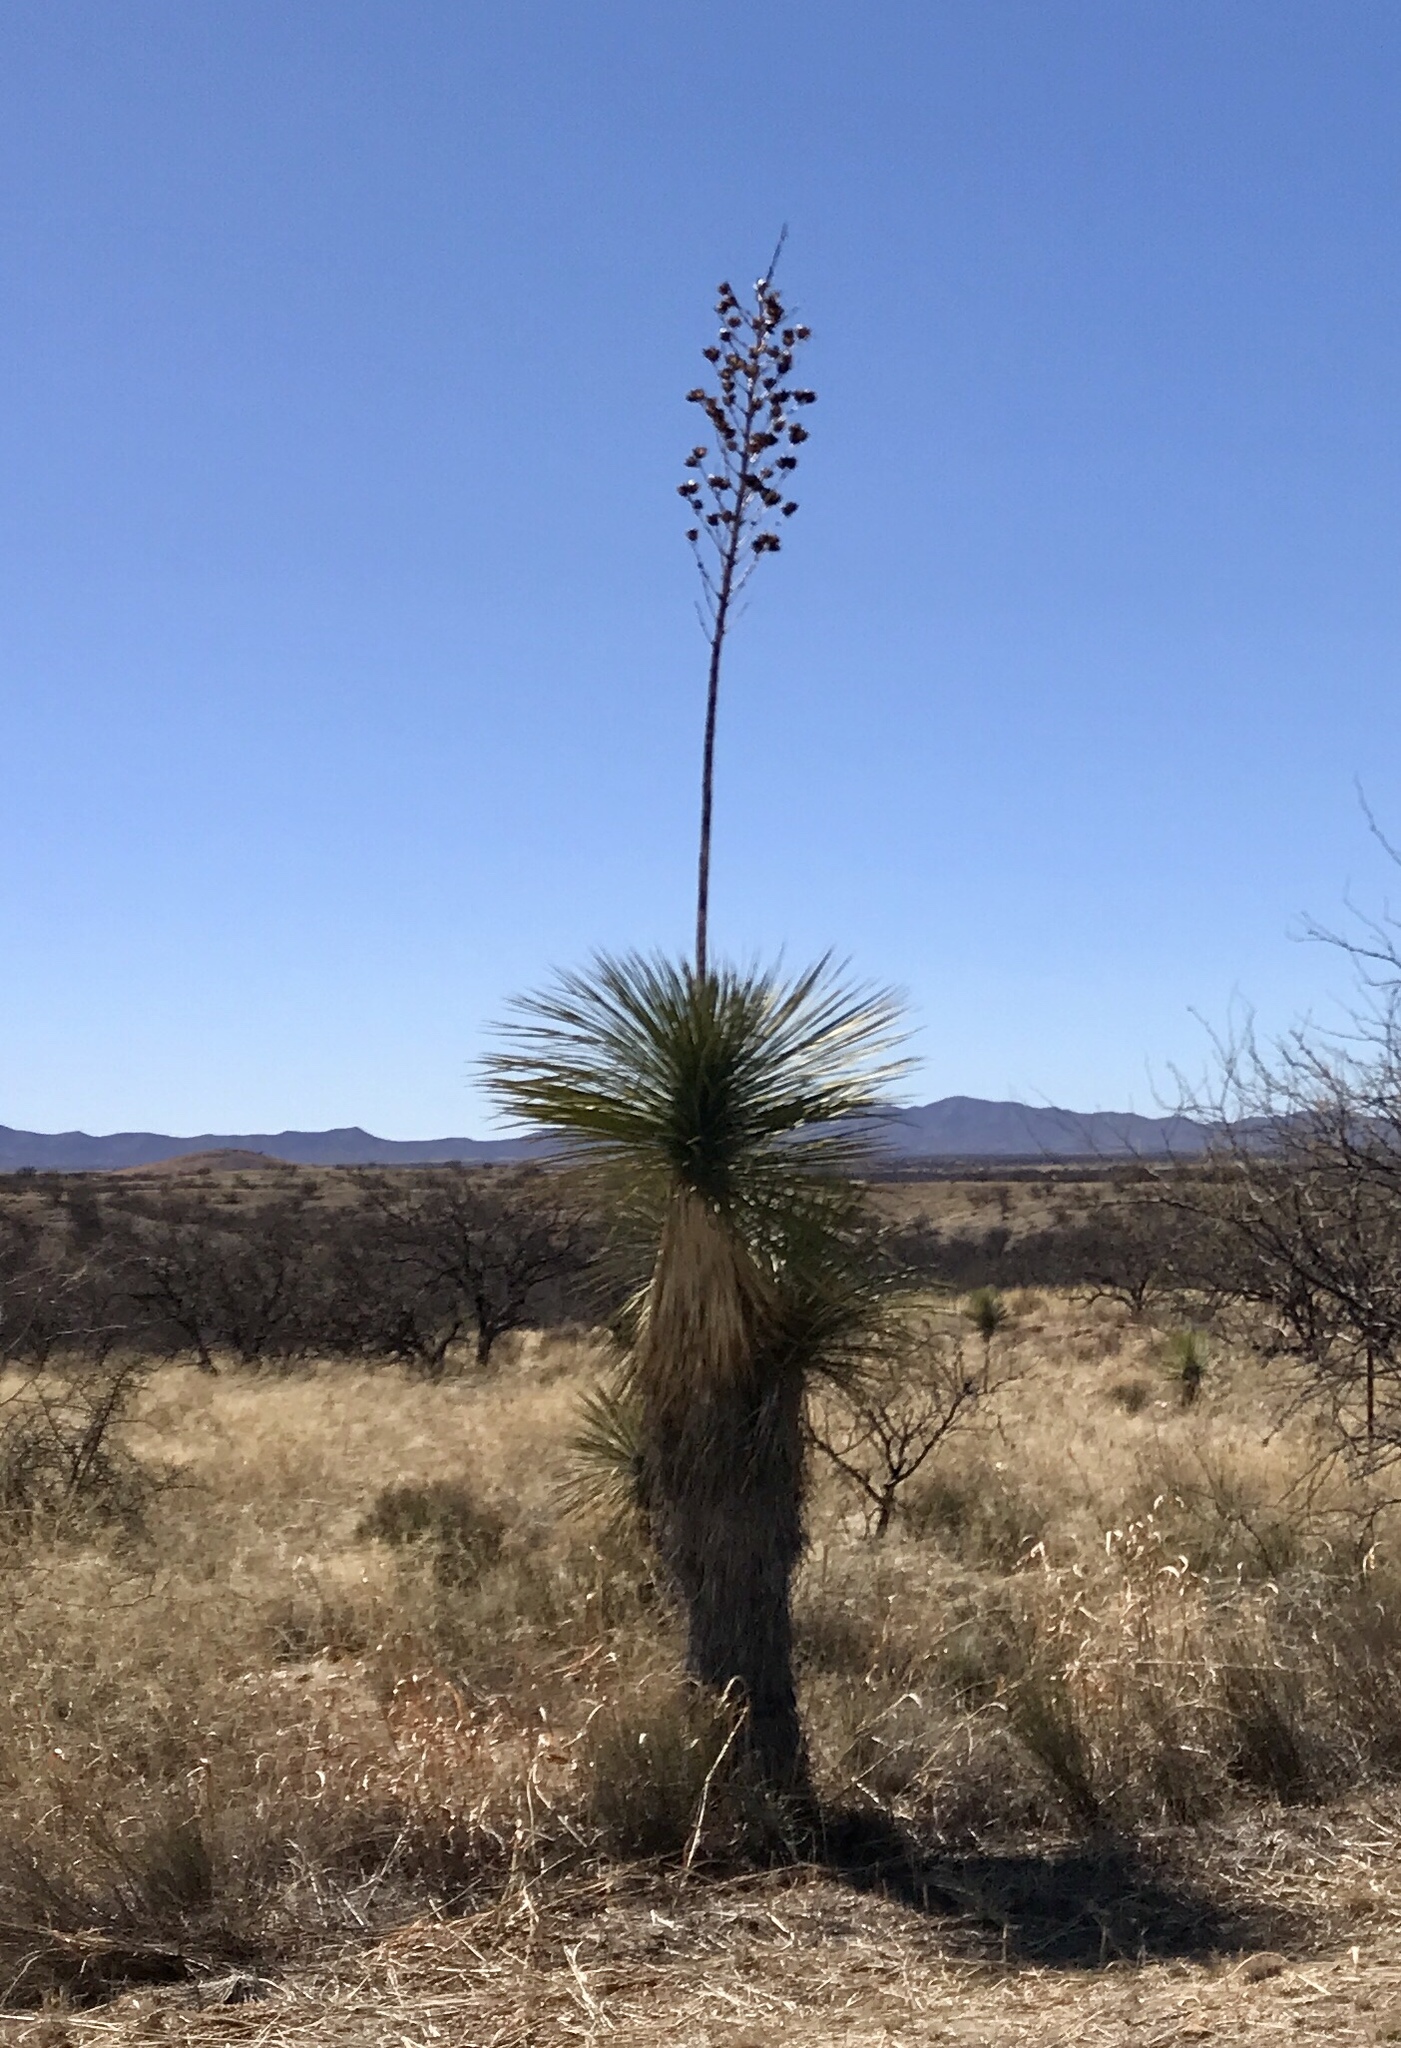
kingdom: Plantae
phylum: Tracheophyta
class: Liliopsida
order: Asparagales
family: Asparagaceae
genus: Yucca
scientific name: Yucca elata
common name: Palmella
